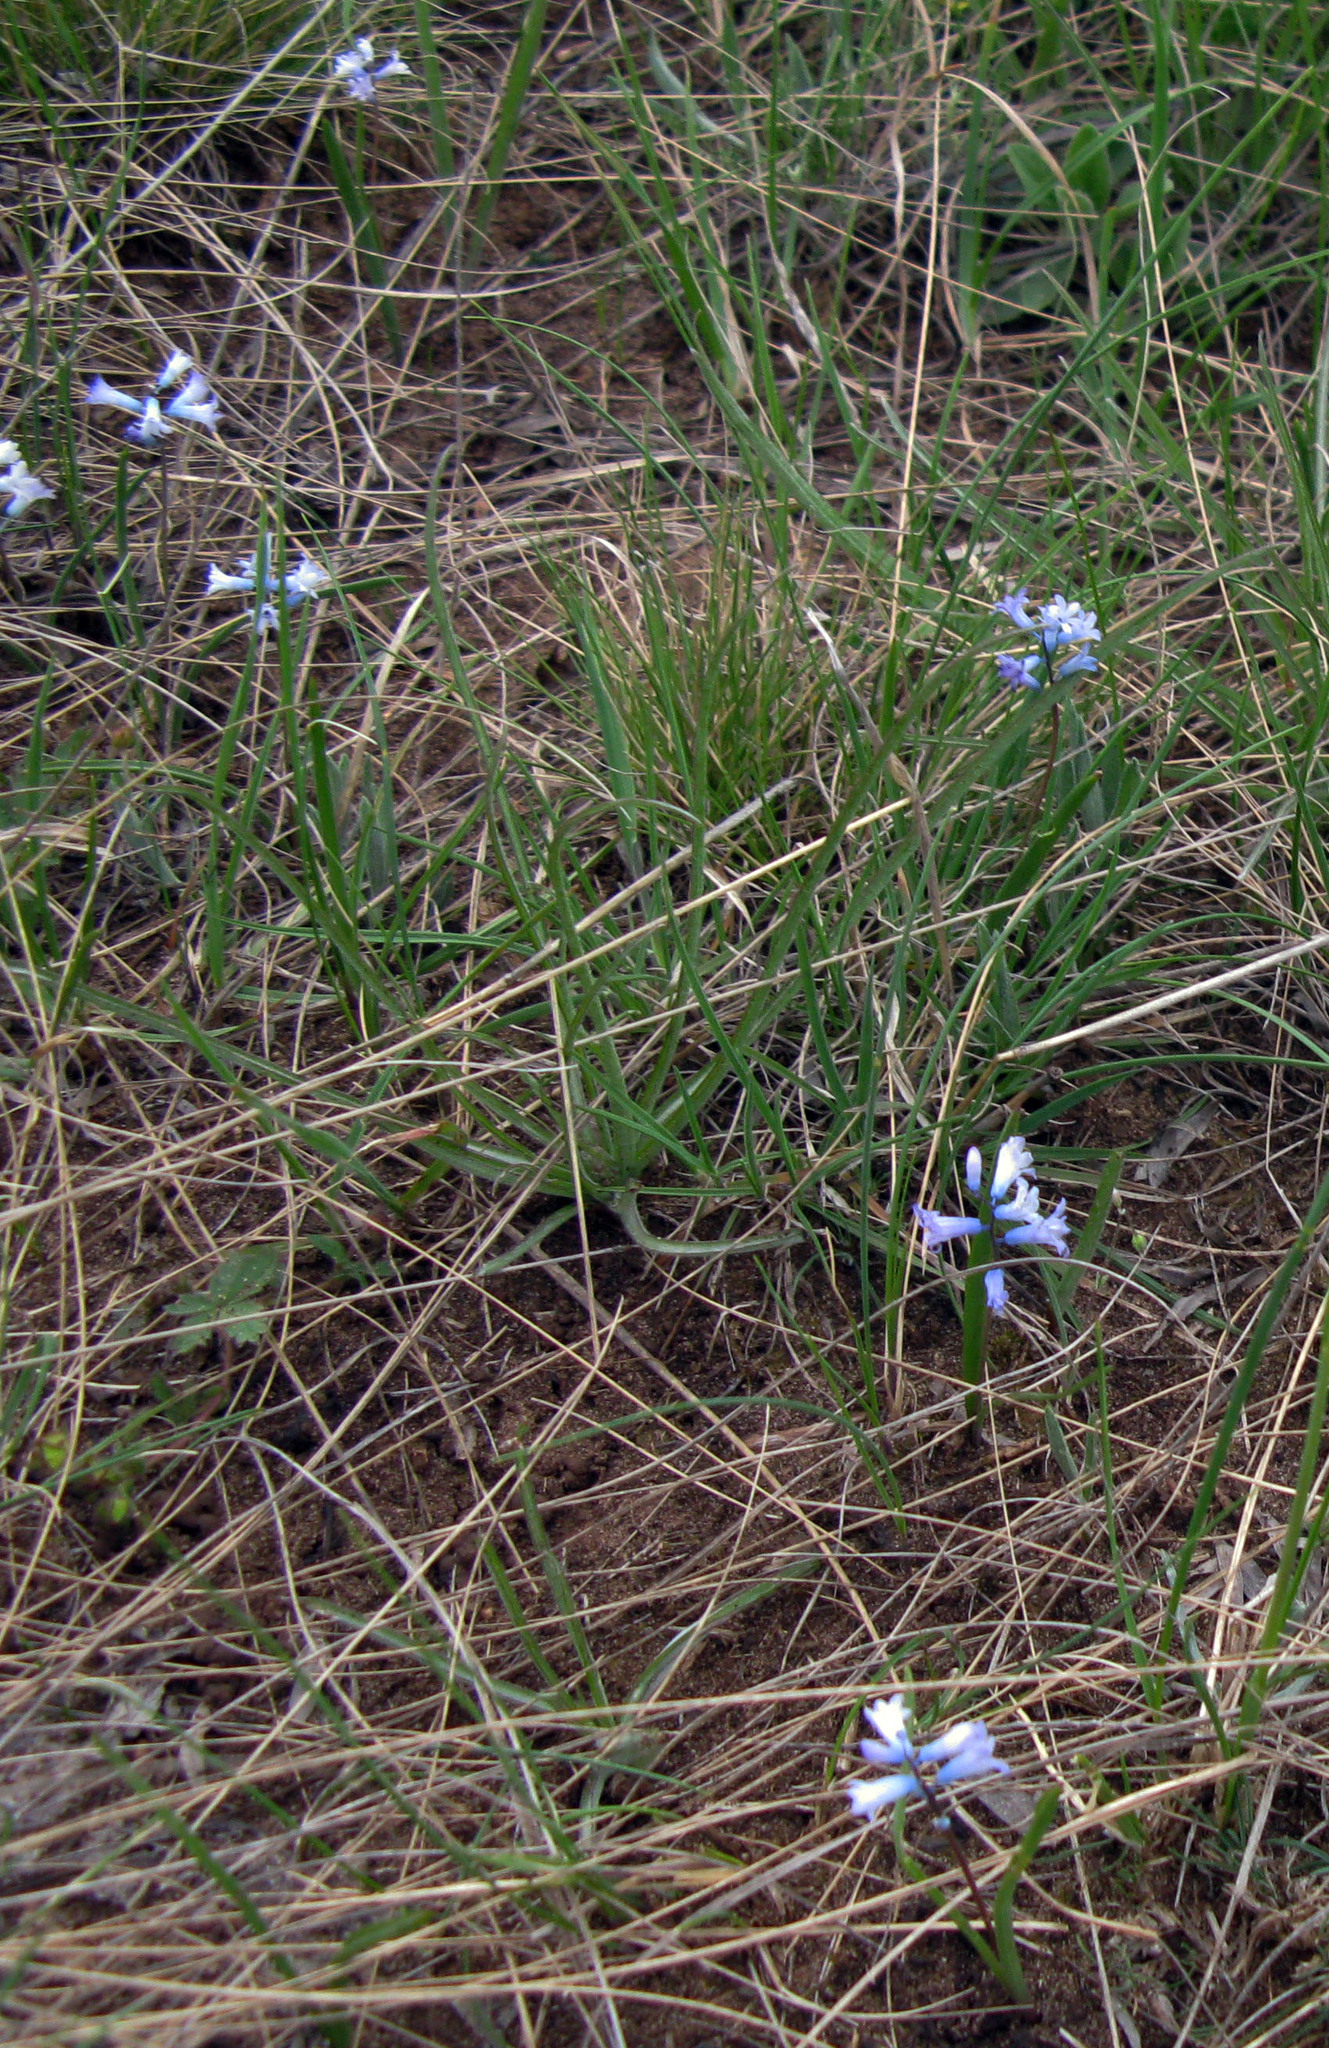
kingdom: Plantae
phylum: Tracheophyta
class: Liliopsida
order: Asparagales
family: Asparagaceae
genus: Hyacinthella
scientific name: Hyacinthella pallasiana
